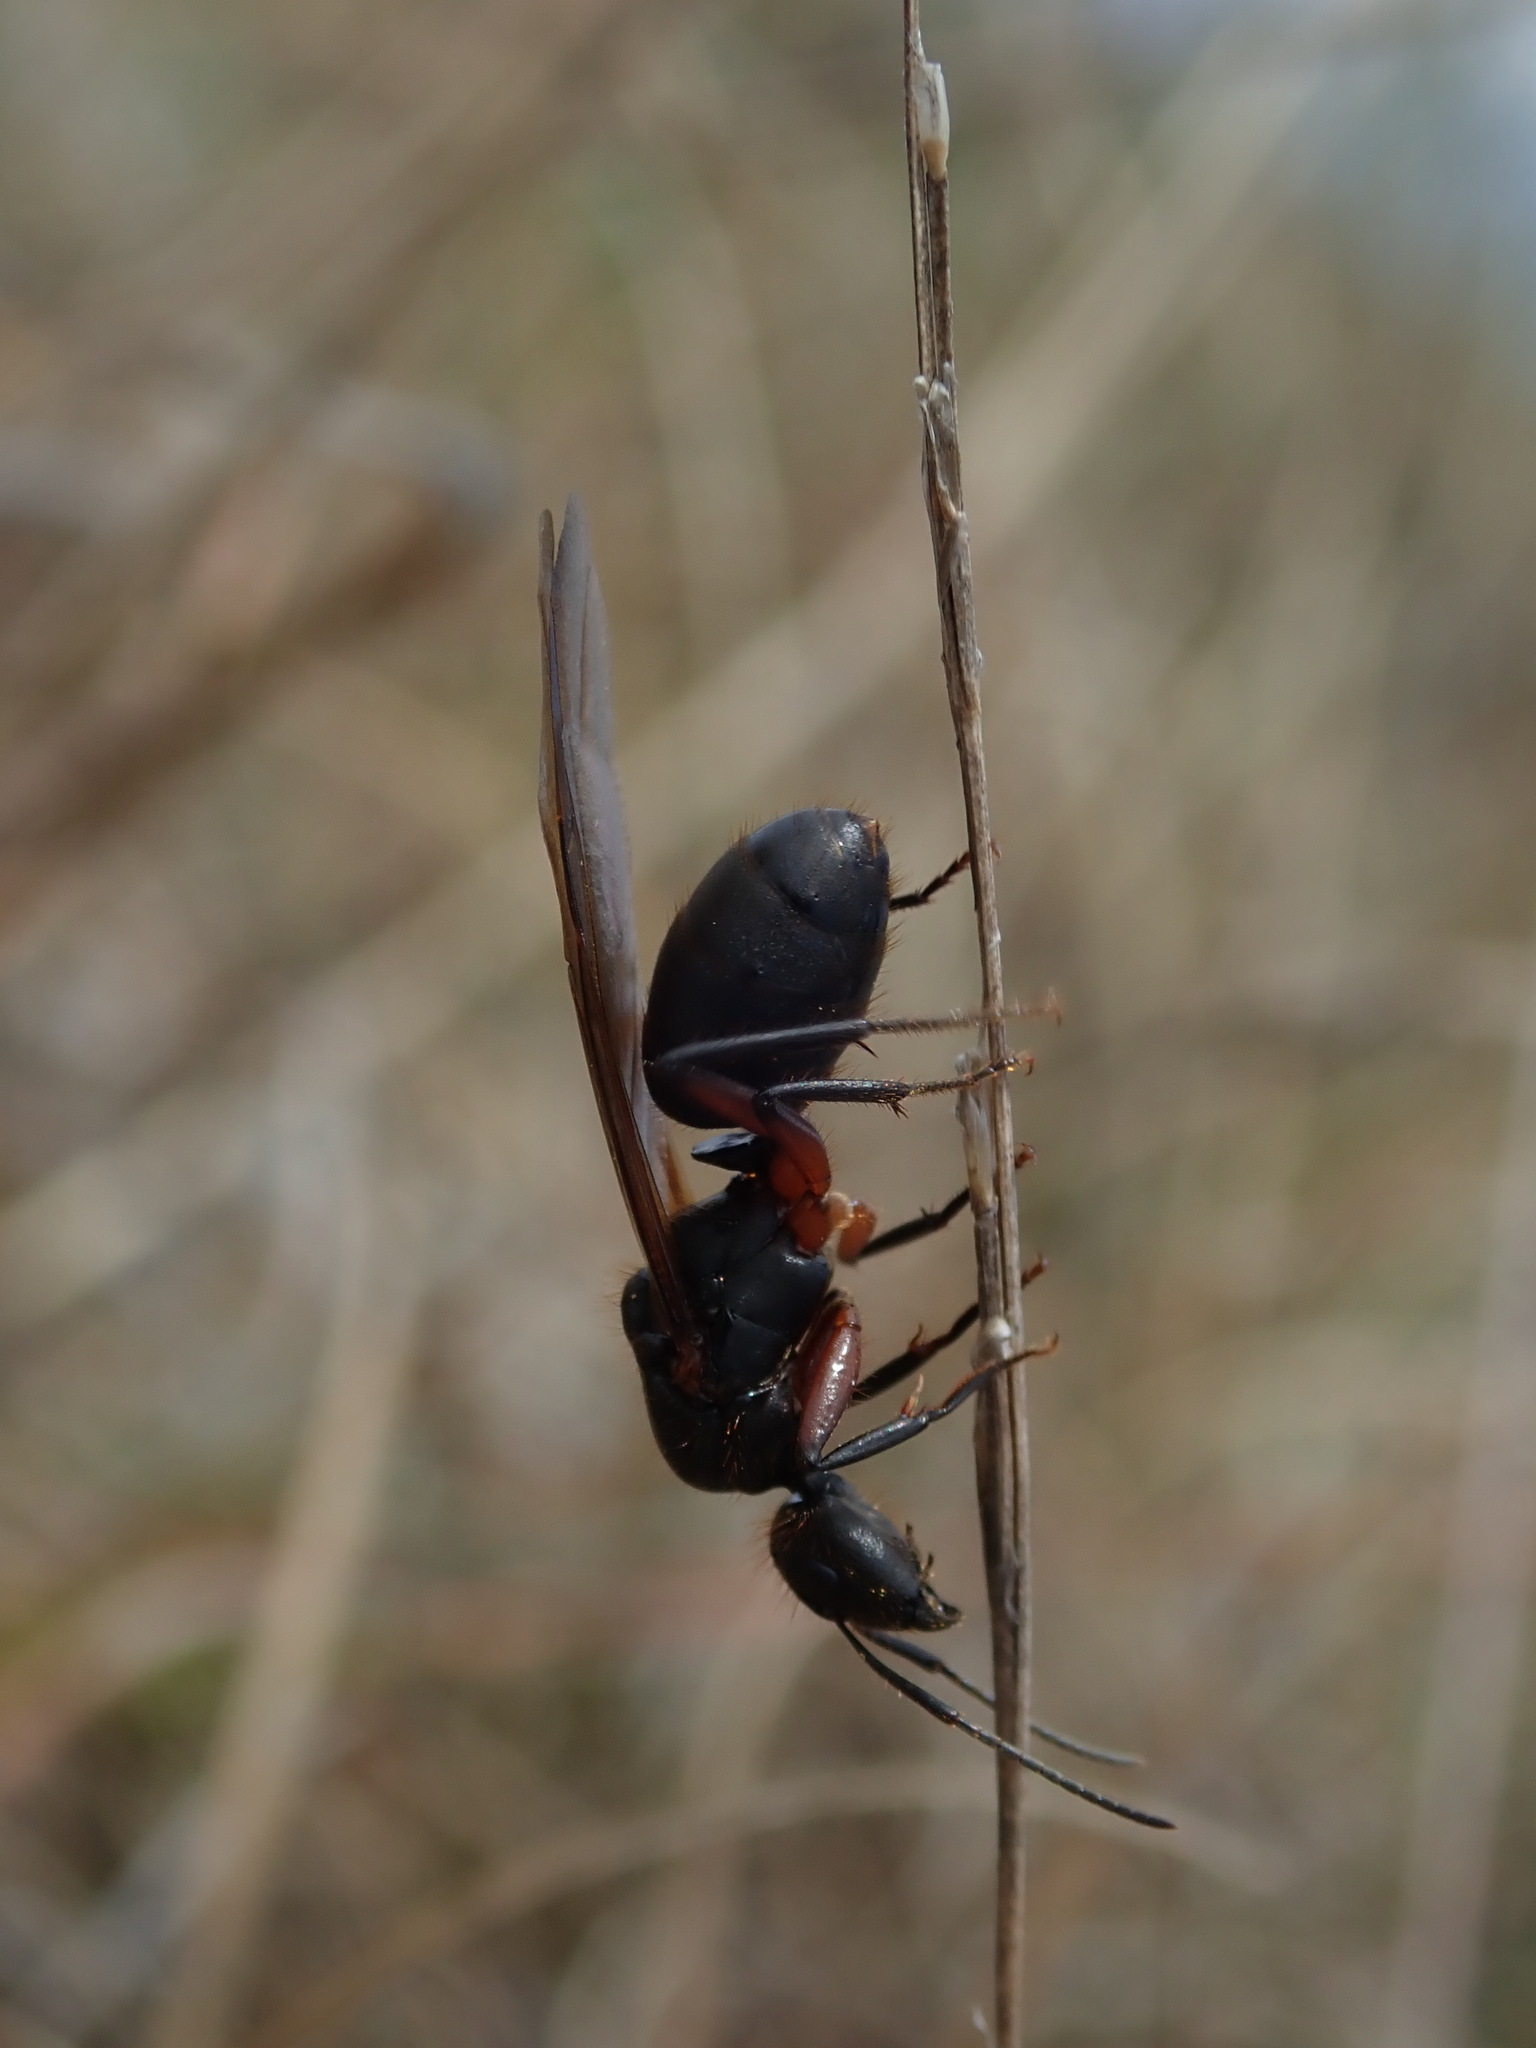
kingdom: Animalia
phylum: Arthropoda
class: Insecta
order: Hymenoptera
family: Formicidae
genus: Camponotus
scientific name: Camponotus rufipes
